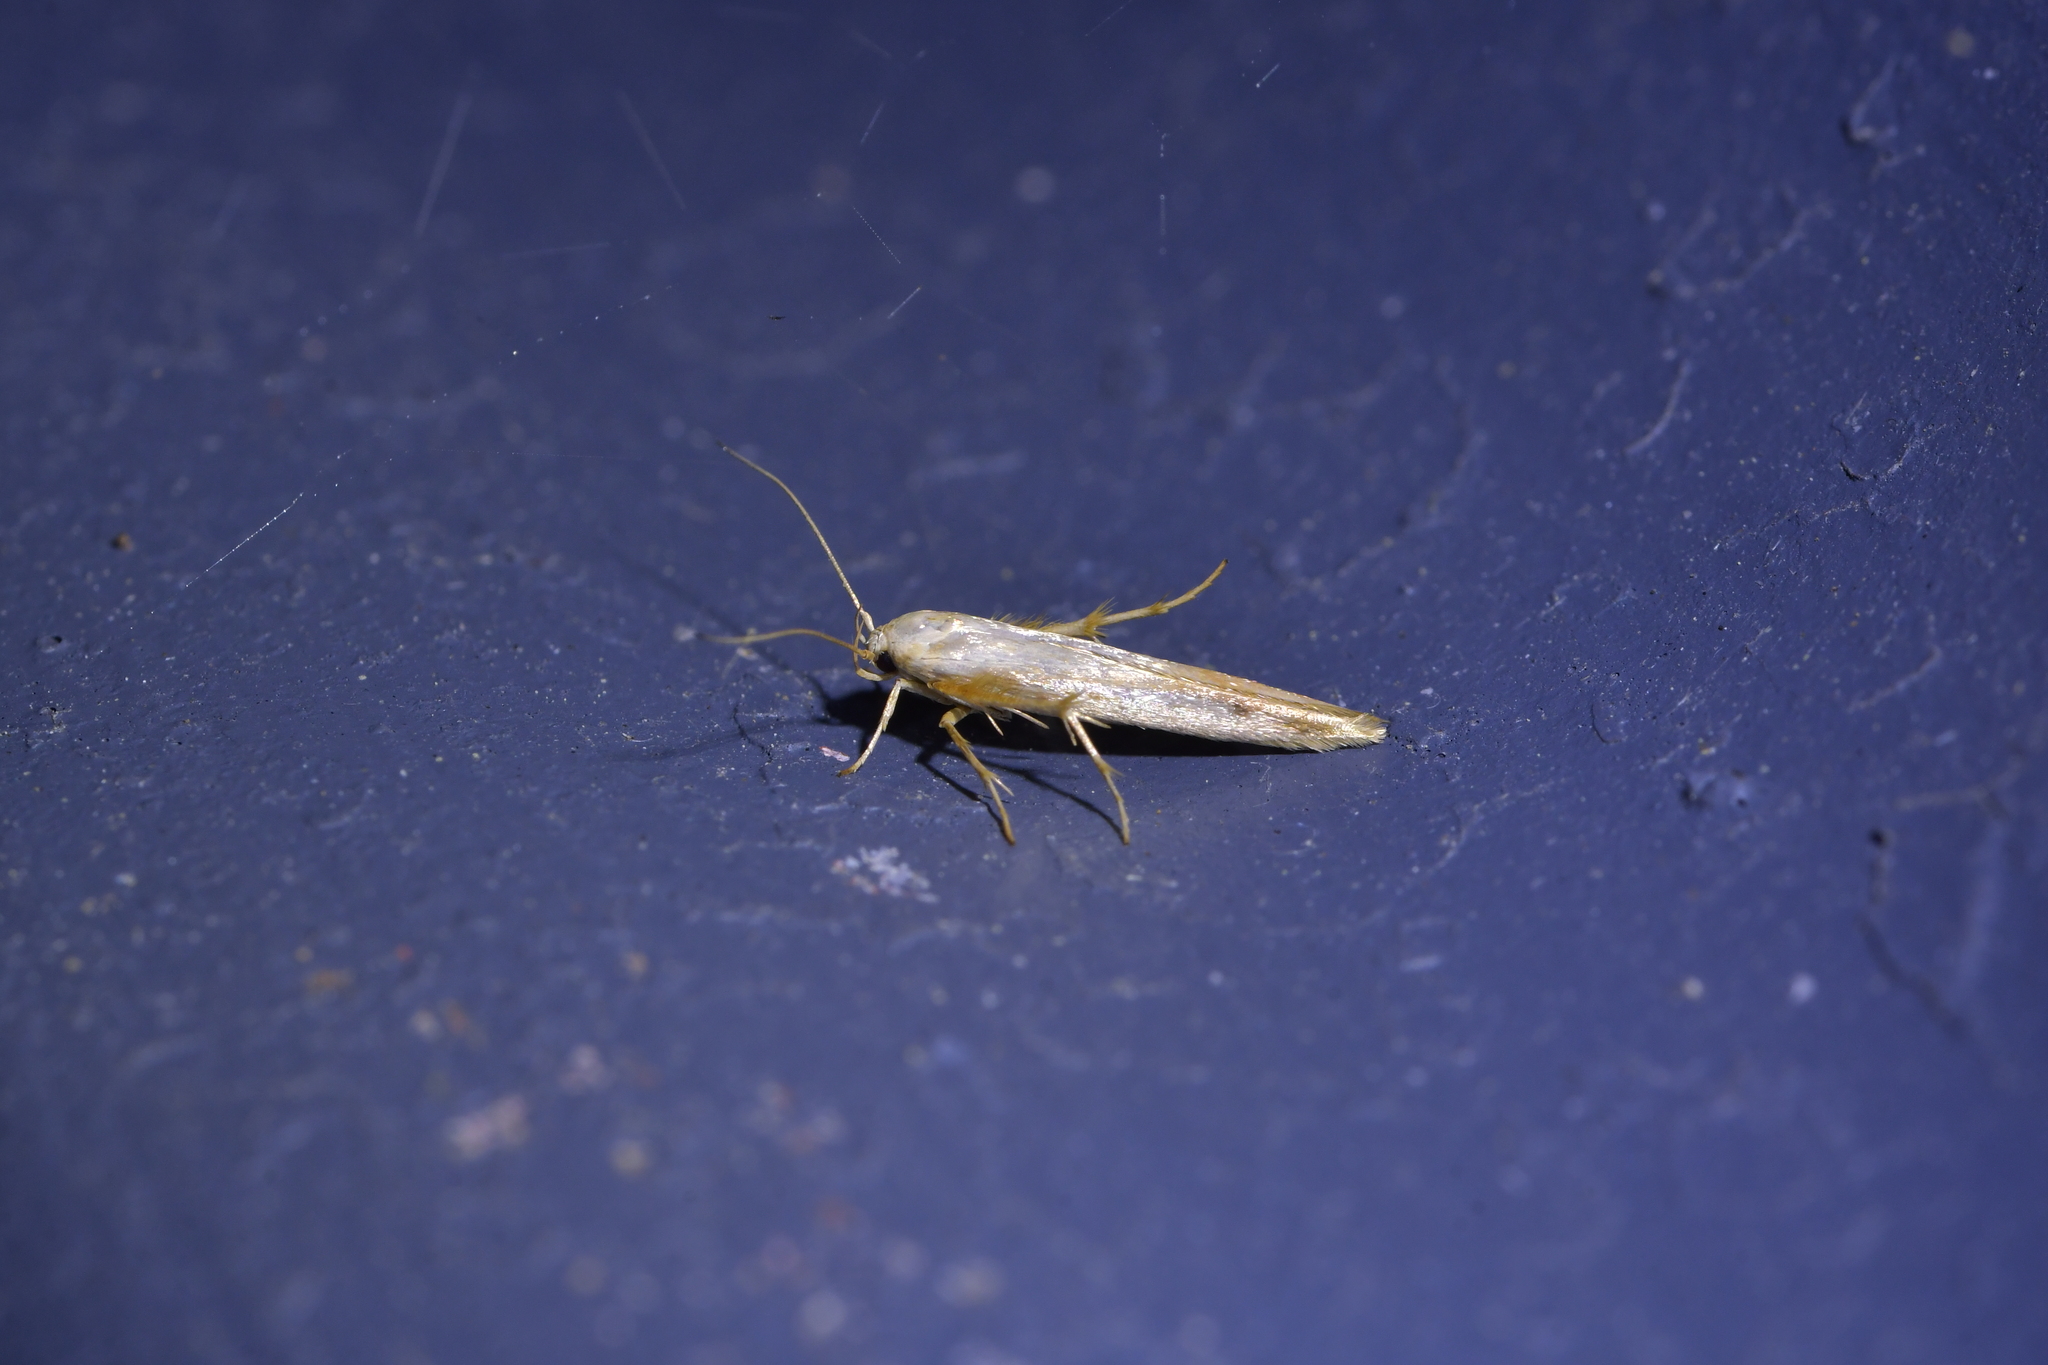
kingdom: Animalia
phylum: Arthropoda
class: Insecta
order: Lepidoptera
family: Stathmopodidae
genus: Stathmopoda
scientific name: Stathmopoda aposema
